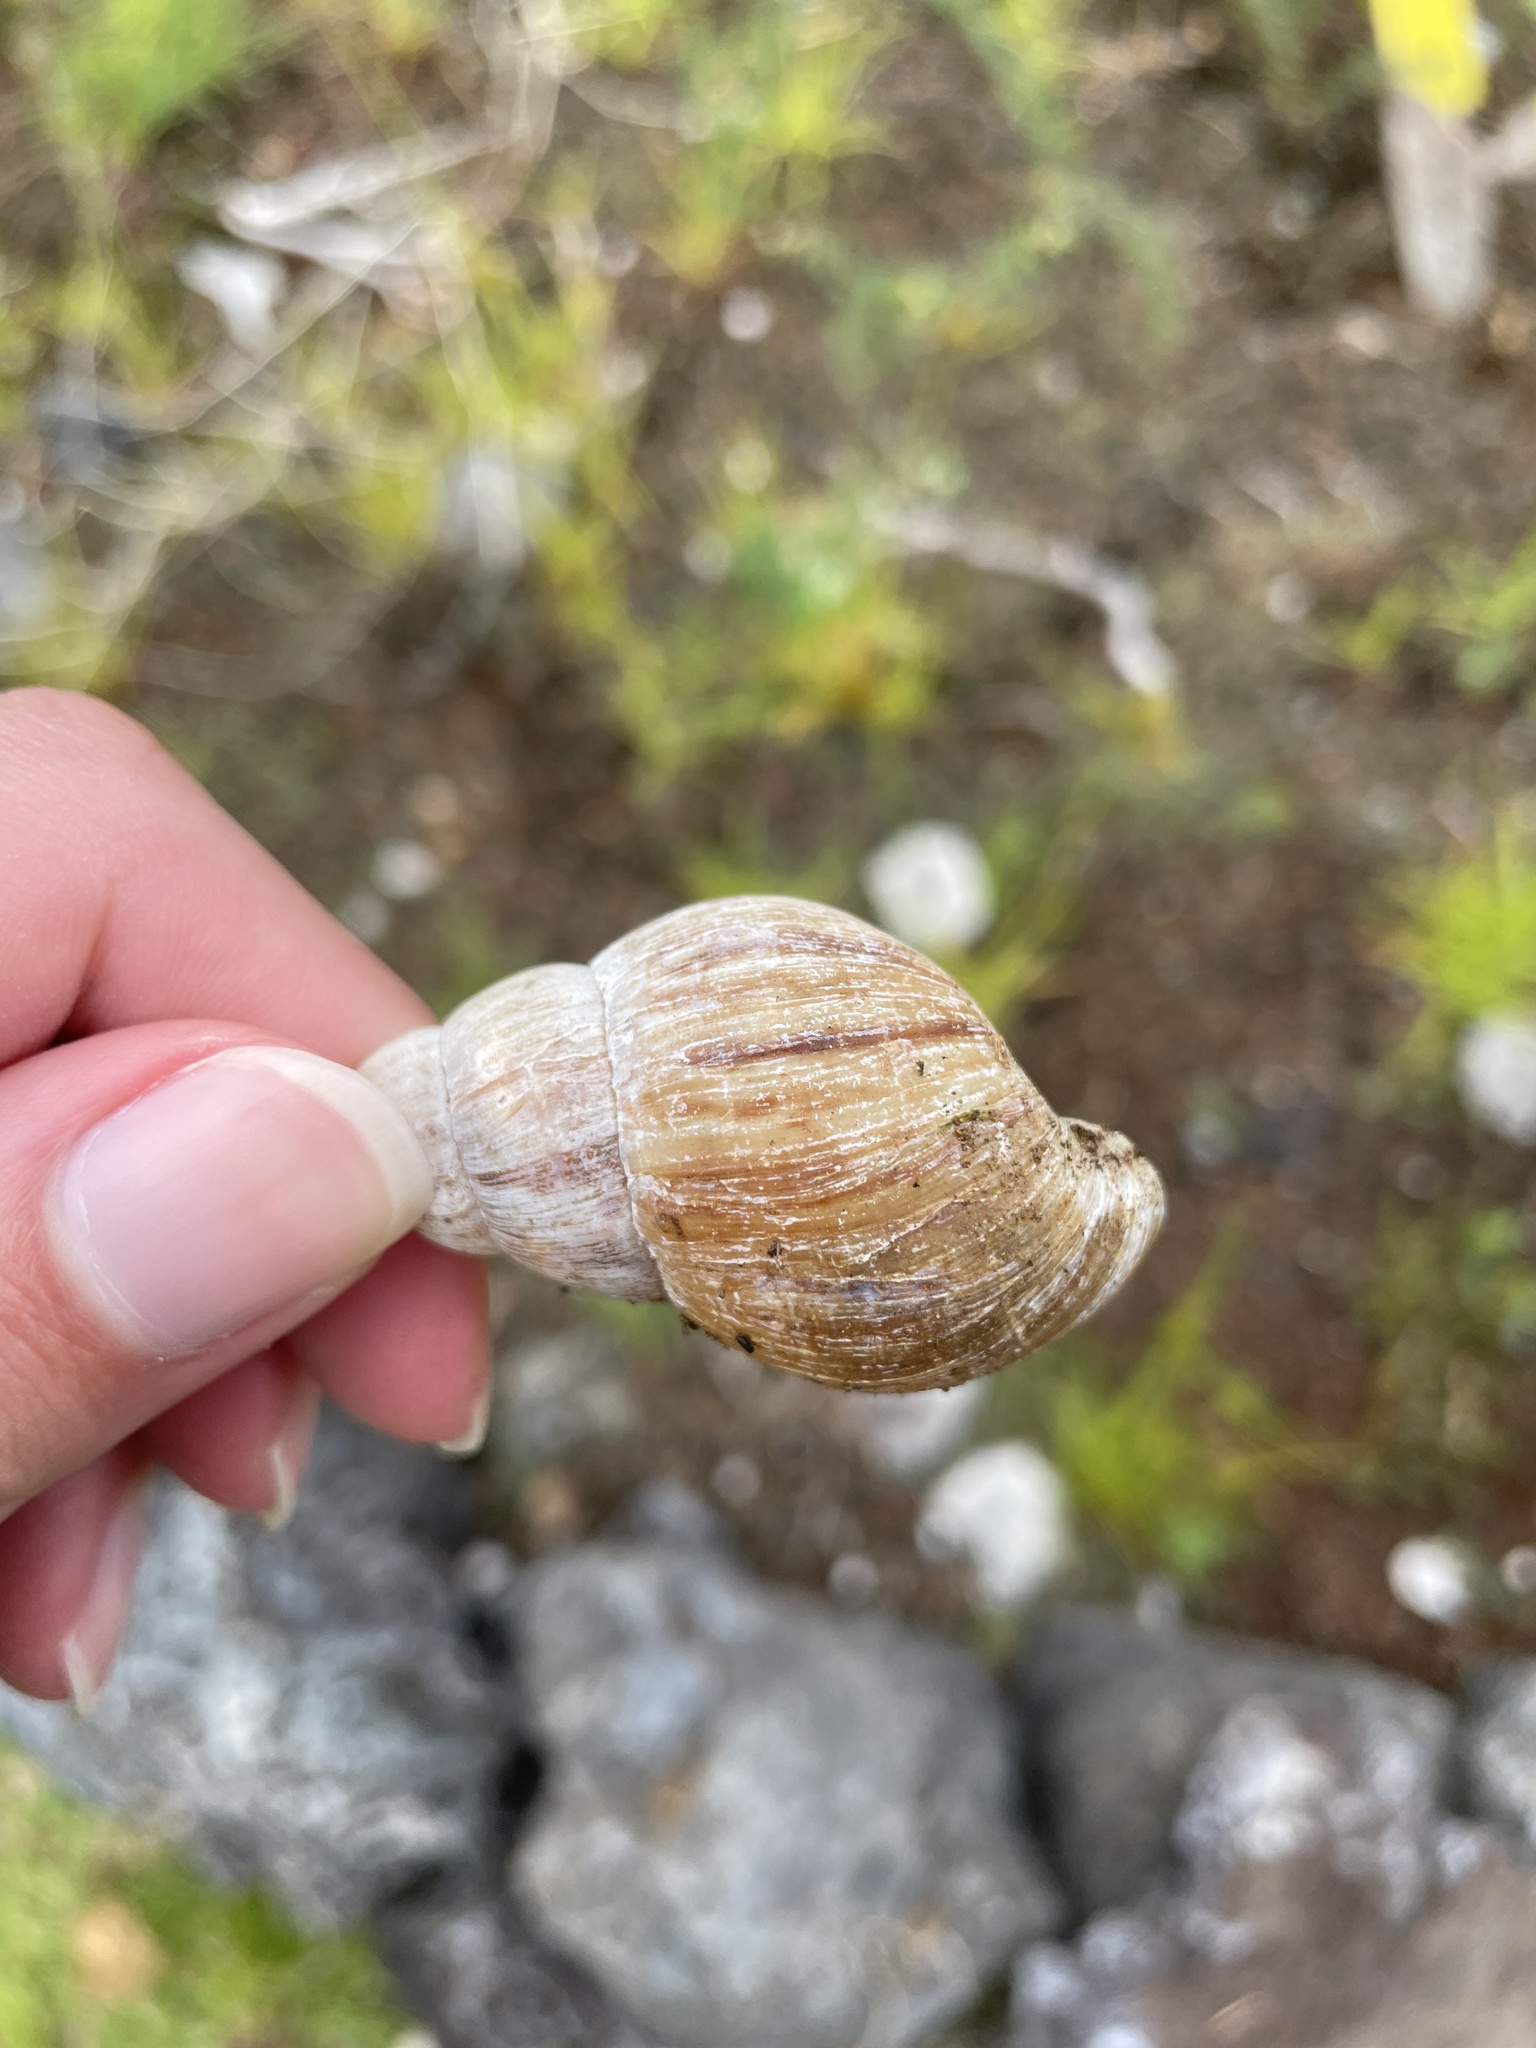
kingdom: Animalia
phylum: Mollusca
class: Gastropoda
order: Stylommatophora
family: Achatinidae
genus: Lissachatina
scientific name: Lissachatina fulica
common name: Giant african snail
